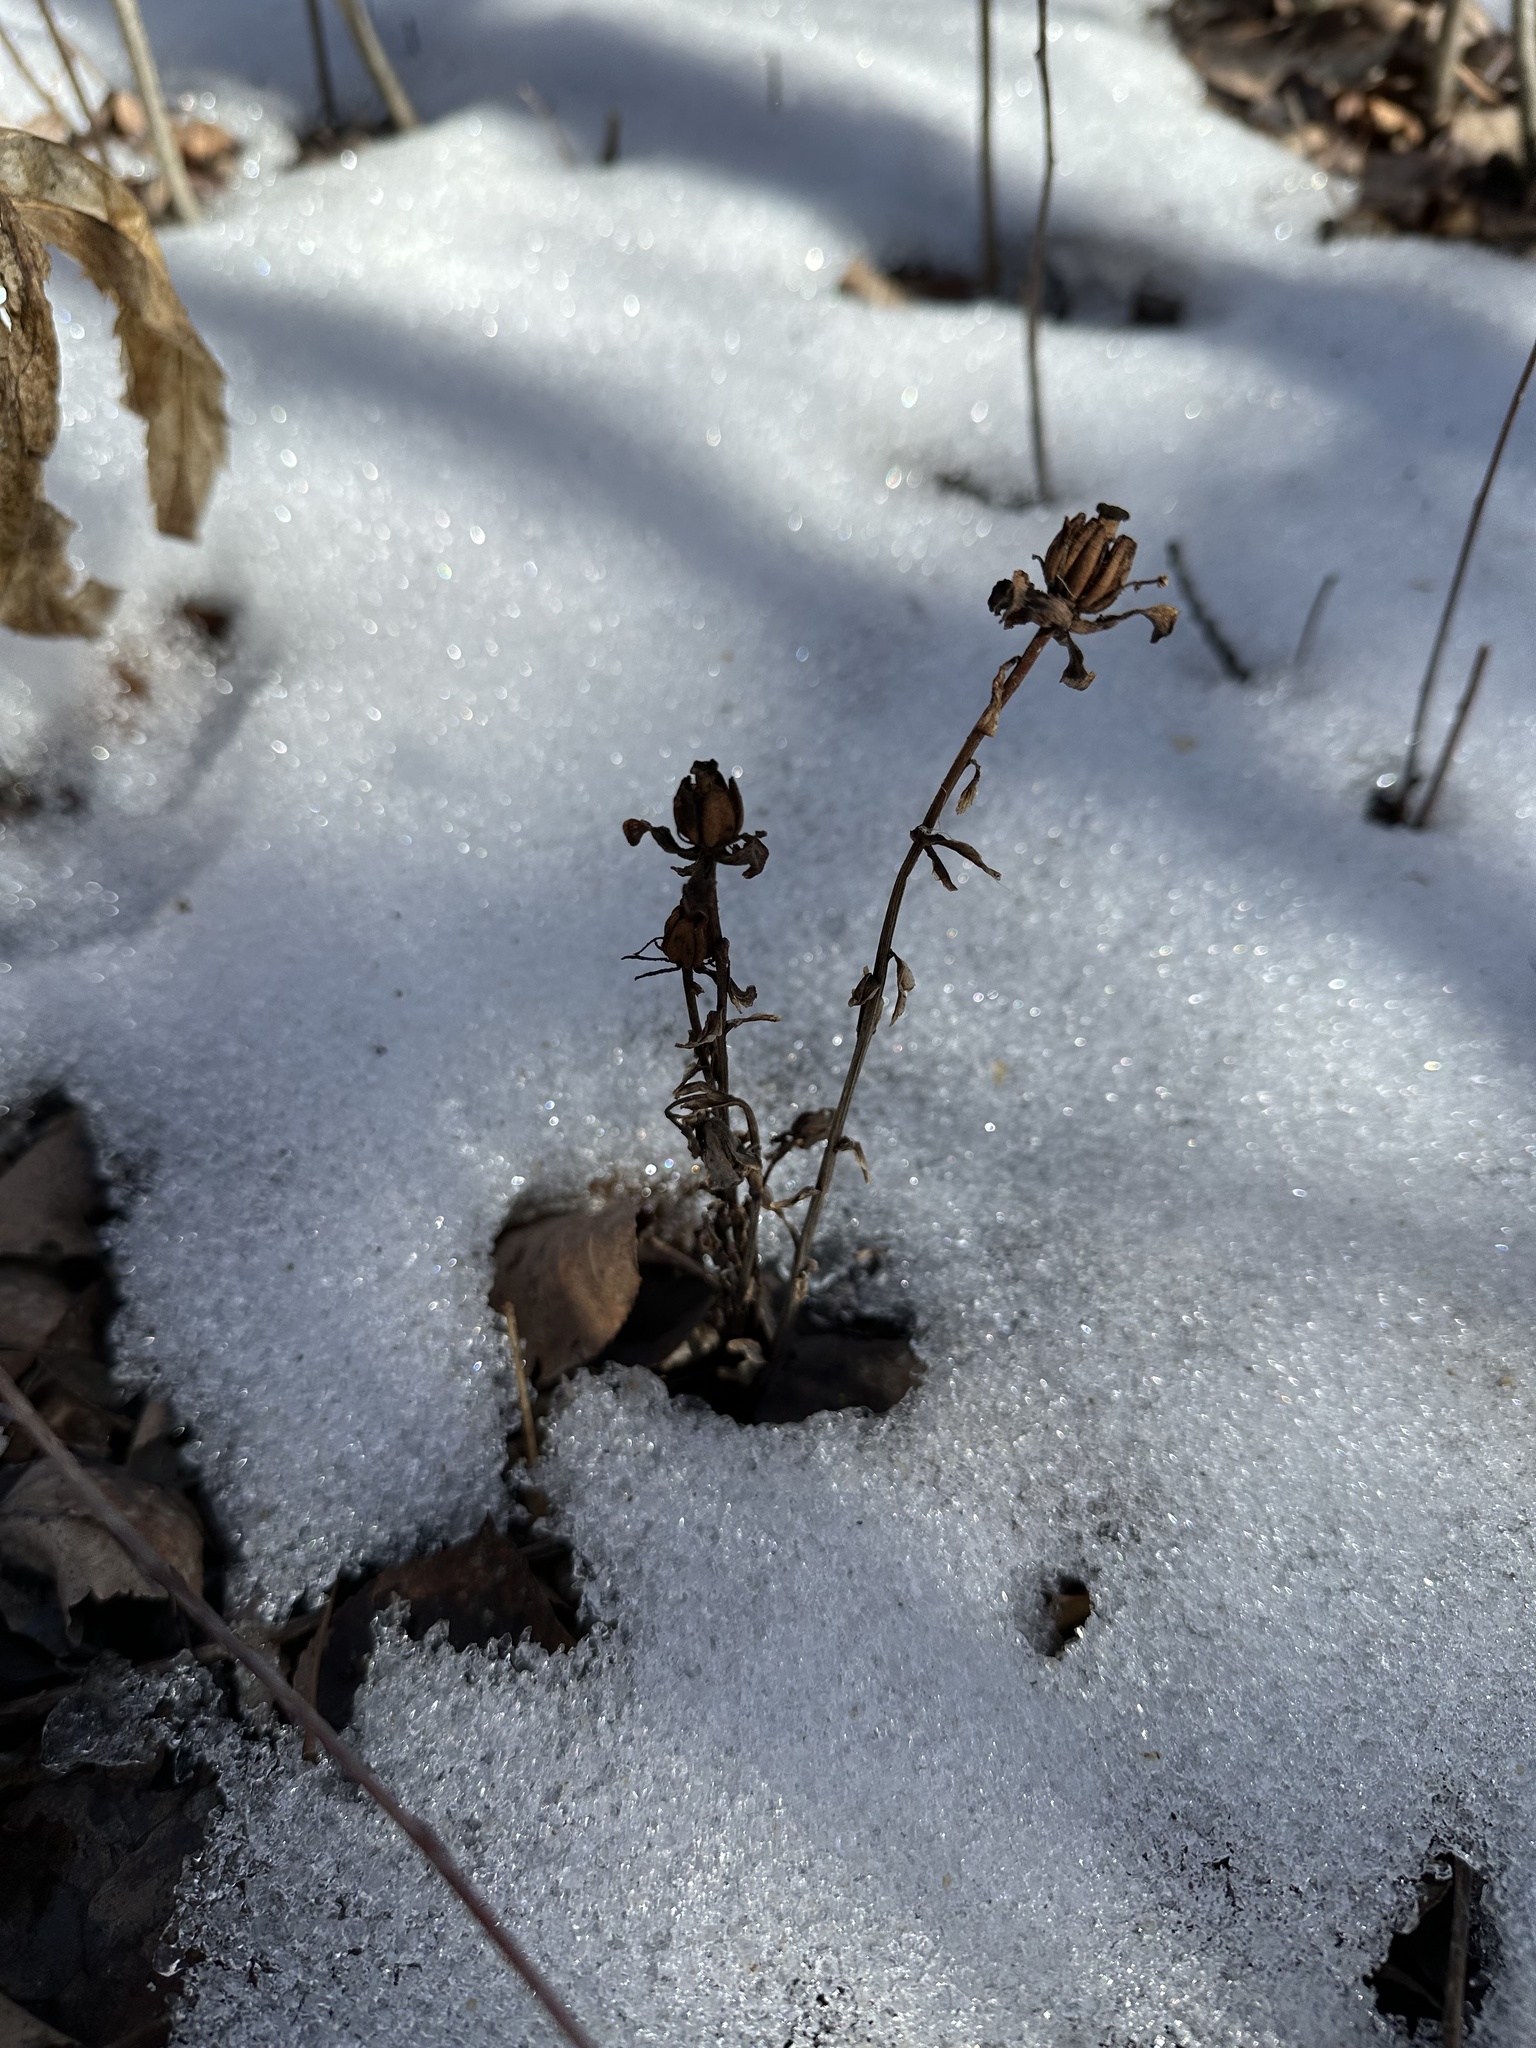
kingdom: Plantae
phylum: Tracheophyta
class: Magnoliopsida
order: Ericales
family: Ericaceae
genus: Monotropa
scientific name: Monotropa uniflora
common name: Convulsion root
